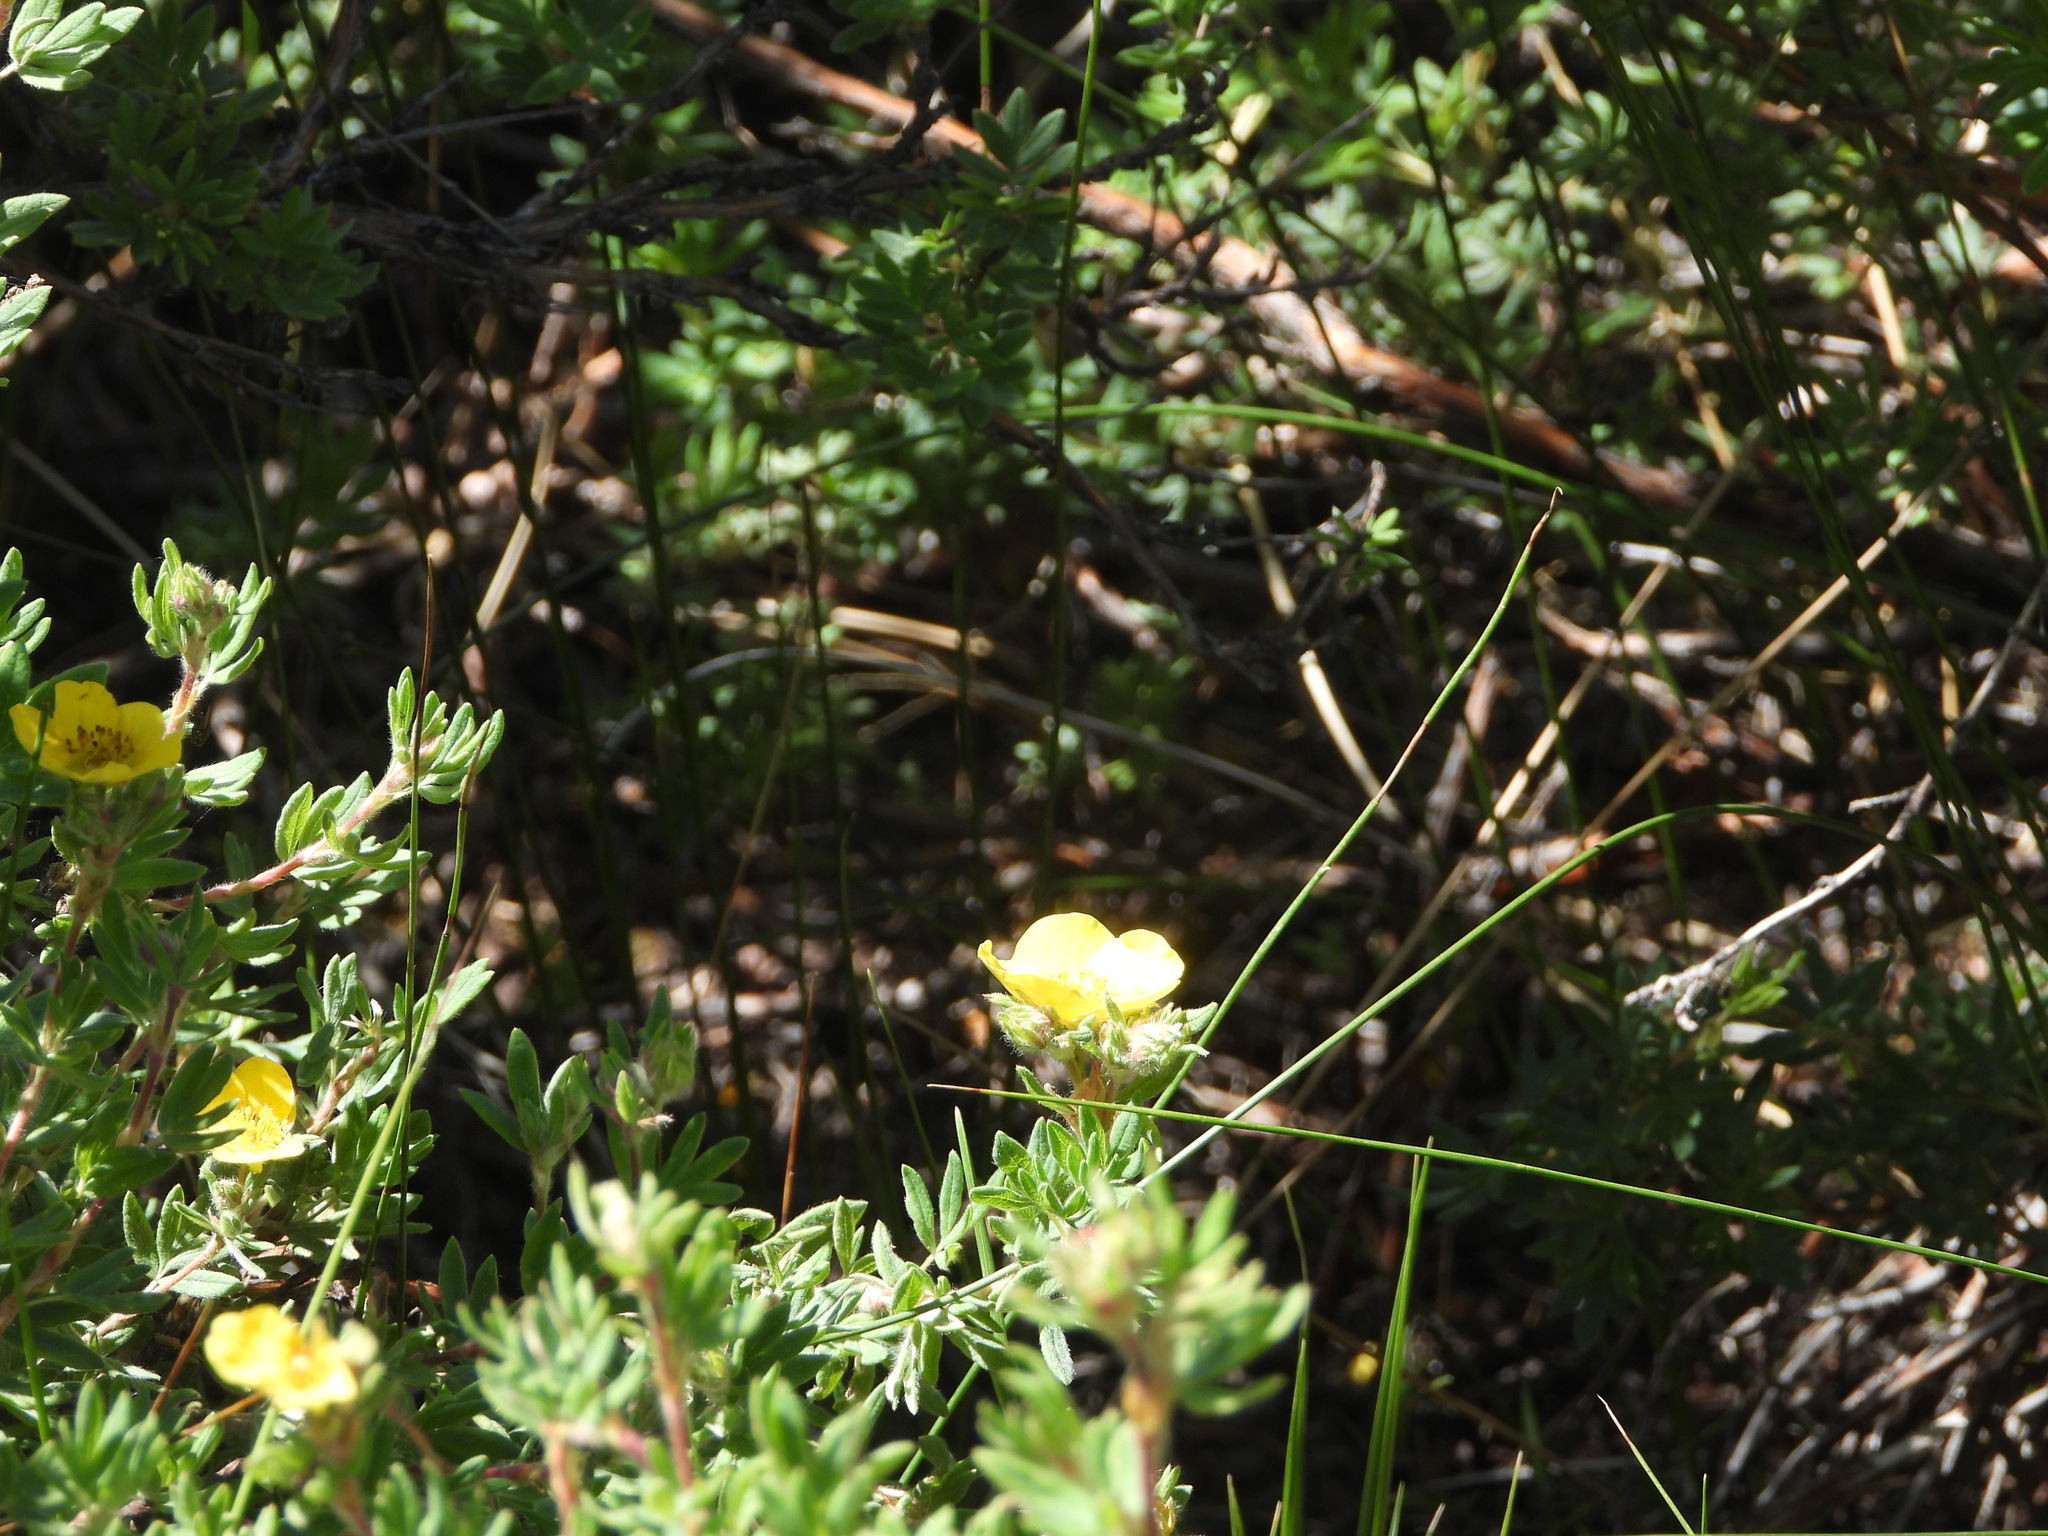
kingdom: Plantae
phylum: Tracheophyta
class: Magnoliopsida
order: Rosales
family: Rosaceae
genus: Dasiphora
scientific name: Dasiphora fruticosa
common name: Shrubby cinquefoil
